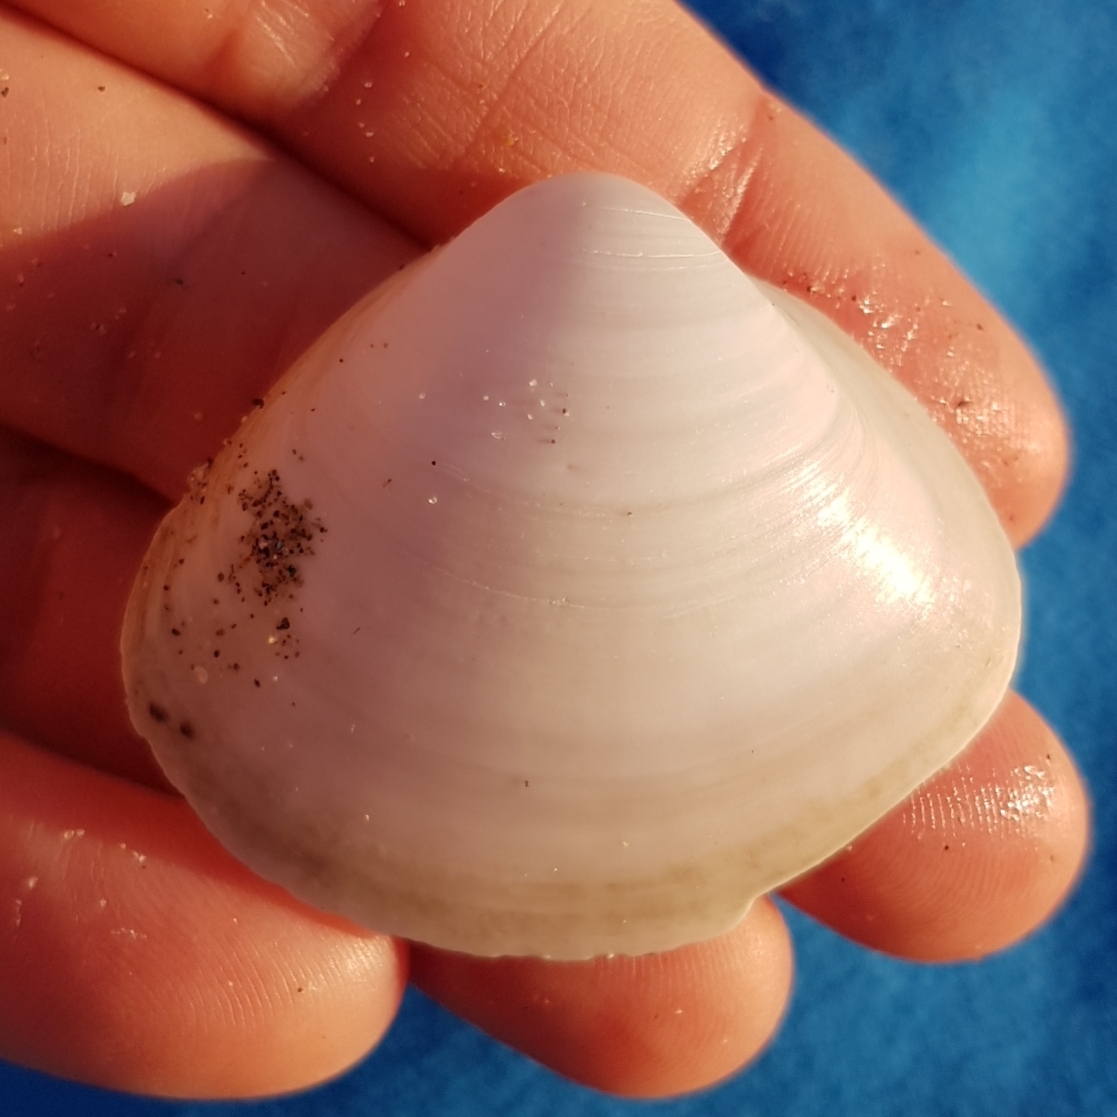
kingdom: Animalia
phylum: Mollusca
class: Bivalvia
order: Venerida
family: Mactridae
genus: Mactra
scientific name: Mactra stultorum
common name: Rayed trough shell
